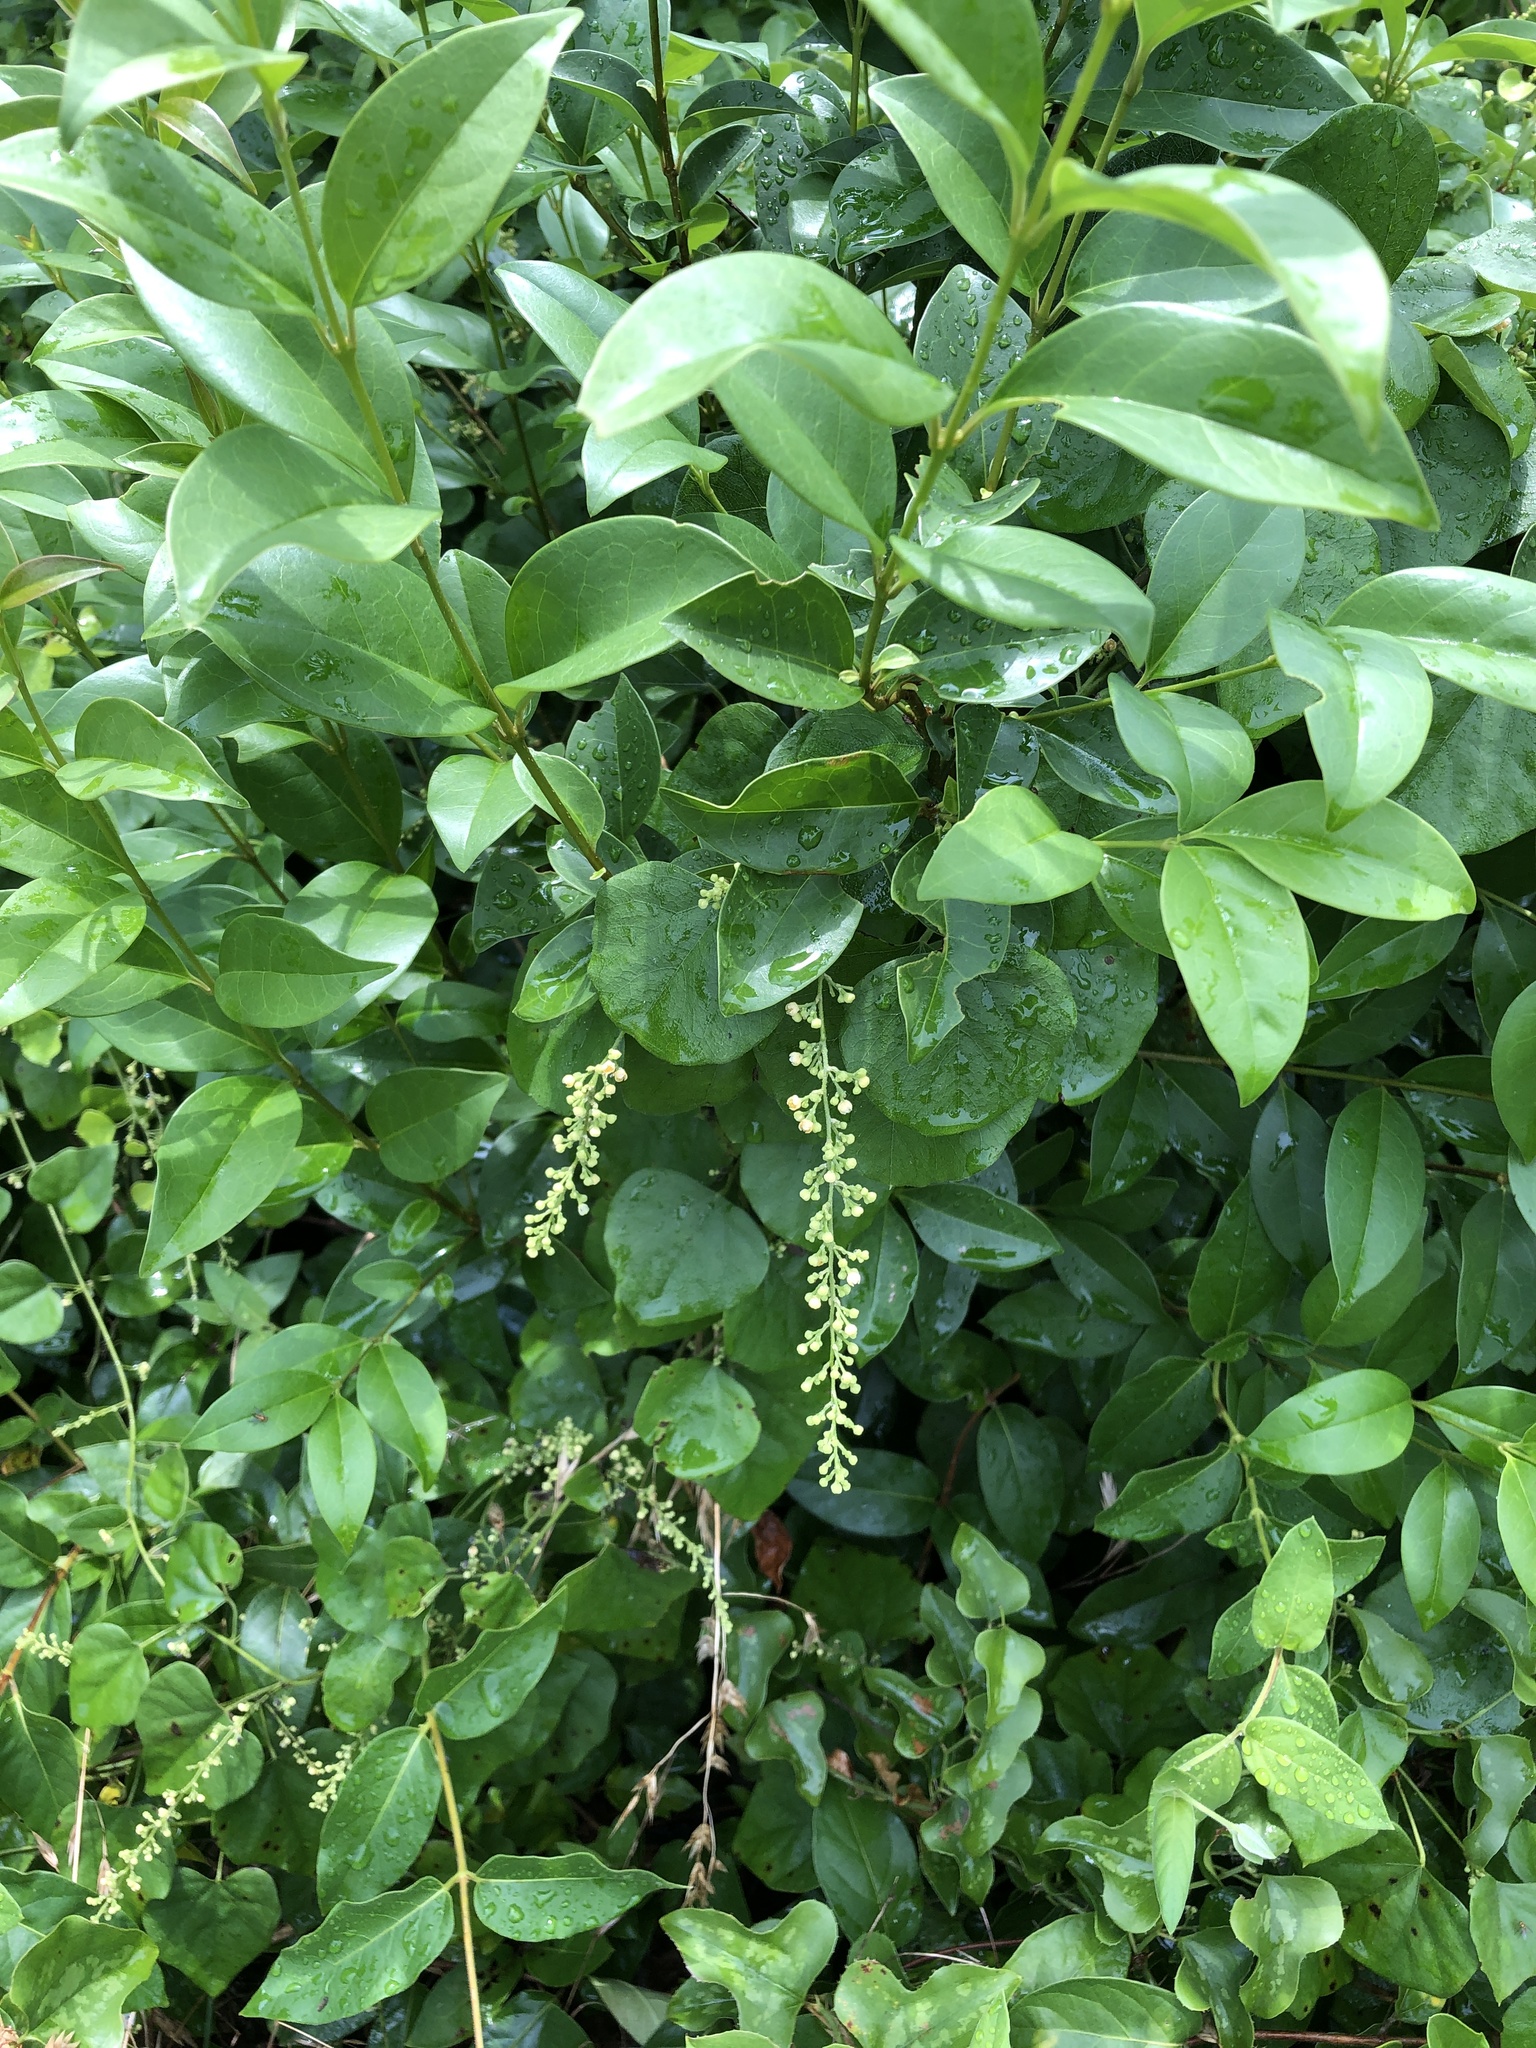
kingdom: Plantae
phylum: Tracheophyta
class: Magnoliopsida
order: Ranunculales
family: Menispermaceae
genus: Cocculus
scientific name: Cocculus carolinus
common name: Carolina moonseed
